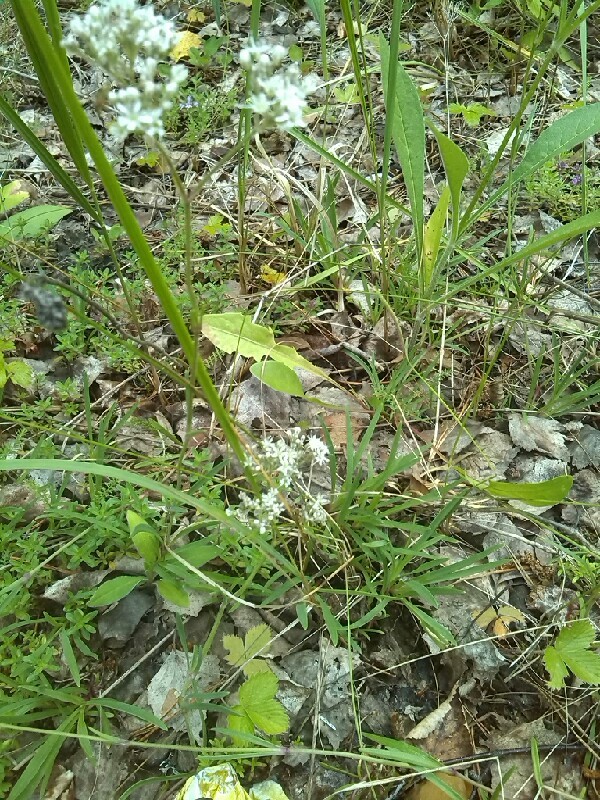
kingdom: Plantae
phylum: Tracheophyta
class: Magnoliopsida
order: Caryophyllales
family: Caryophyllaceae
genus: Gypsophila
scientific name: Gypsophila fastigiata
